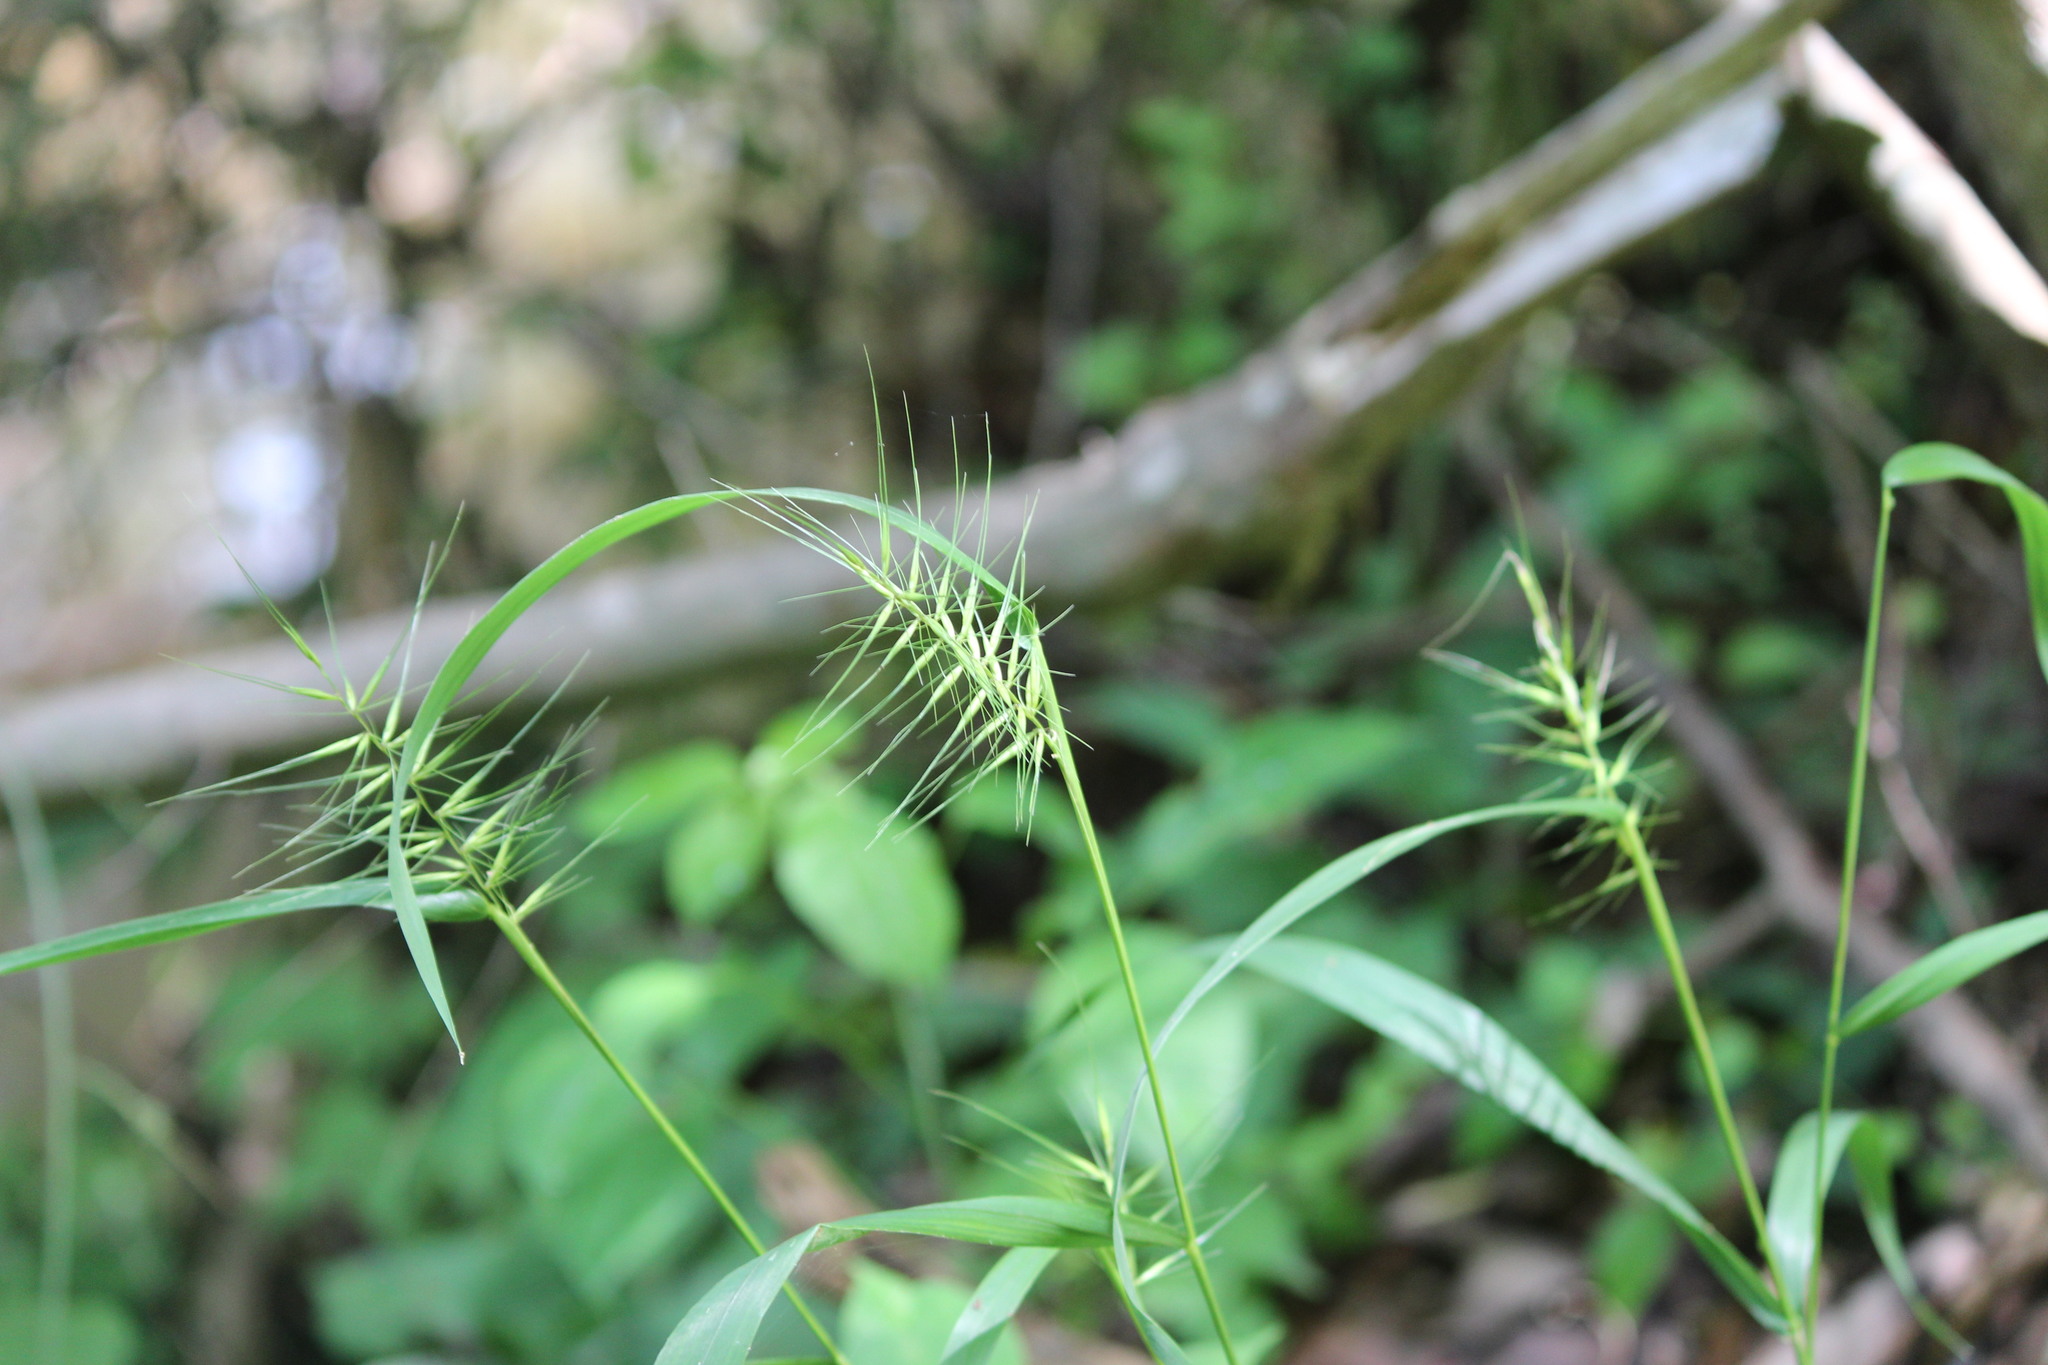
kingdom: Plantae
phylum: Tracheophyta
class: Liliopsida
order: Poales
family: Poaceae
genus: Elymus
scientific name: Elymus hystrix
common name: Bottlebrush grass
